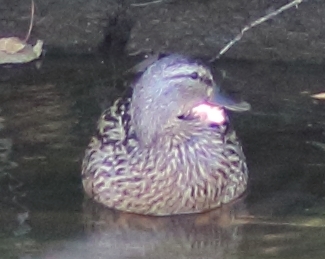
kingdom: Animalia
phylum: Chordata
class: Aves
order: Anseriformes
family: Anatidae
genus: Anas
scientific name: Anas platyrhynchos
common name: Mallard
